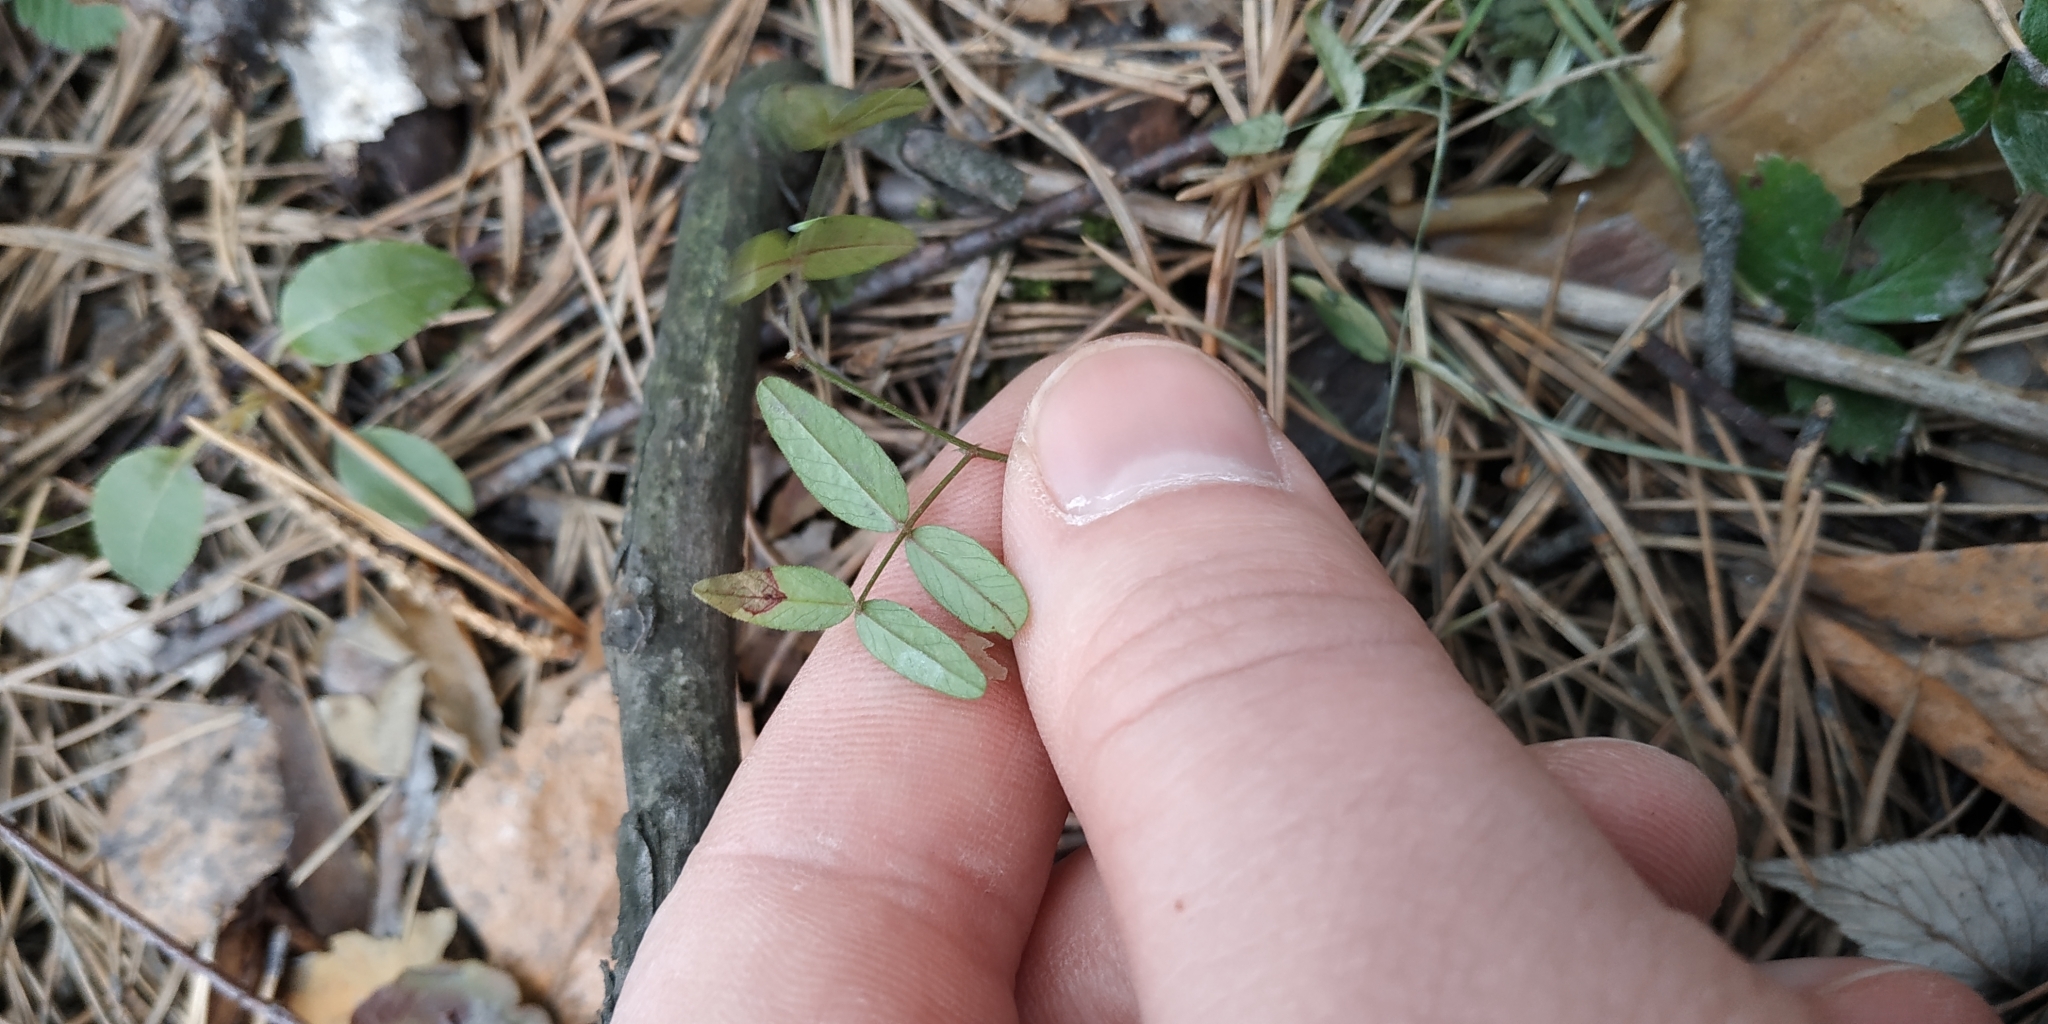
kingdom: Plantae
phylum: Tracheophyta
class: Magnoliopsida
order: Fabales
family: Fabaceae
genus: Vicia
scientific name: Vicia sepium
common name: Bush vetch
